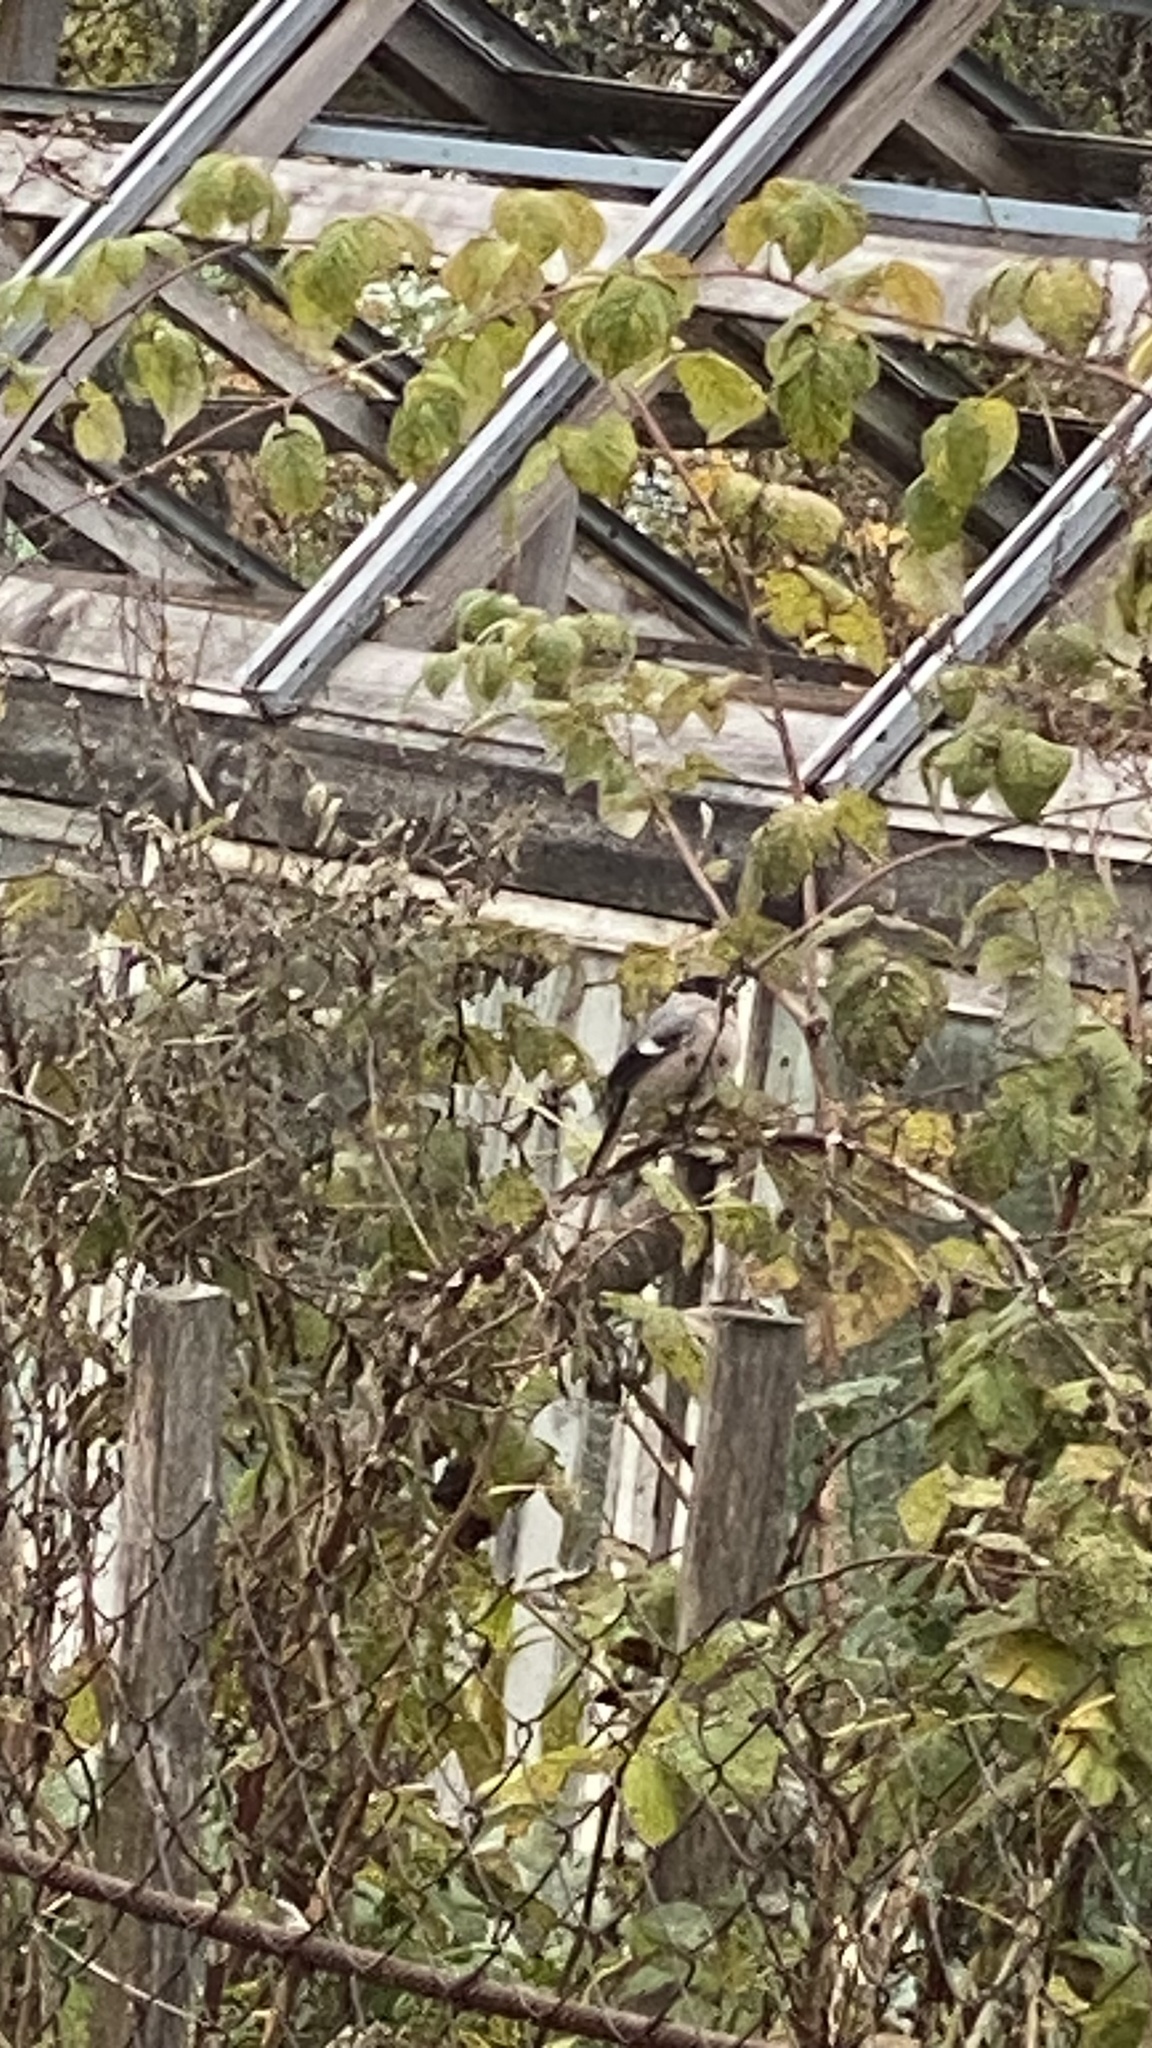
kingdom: Animalia
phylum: Chordata
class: Aves
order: Passeriformes
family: Fringillidae
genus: Pyrrhula
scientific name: Pyrrhula pyrrhula
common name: Eurasian bullfinch
